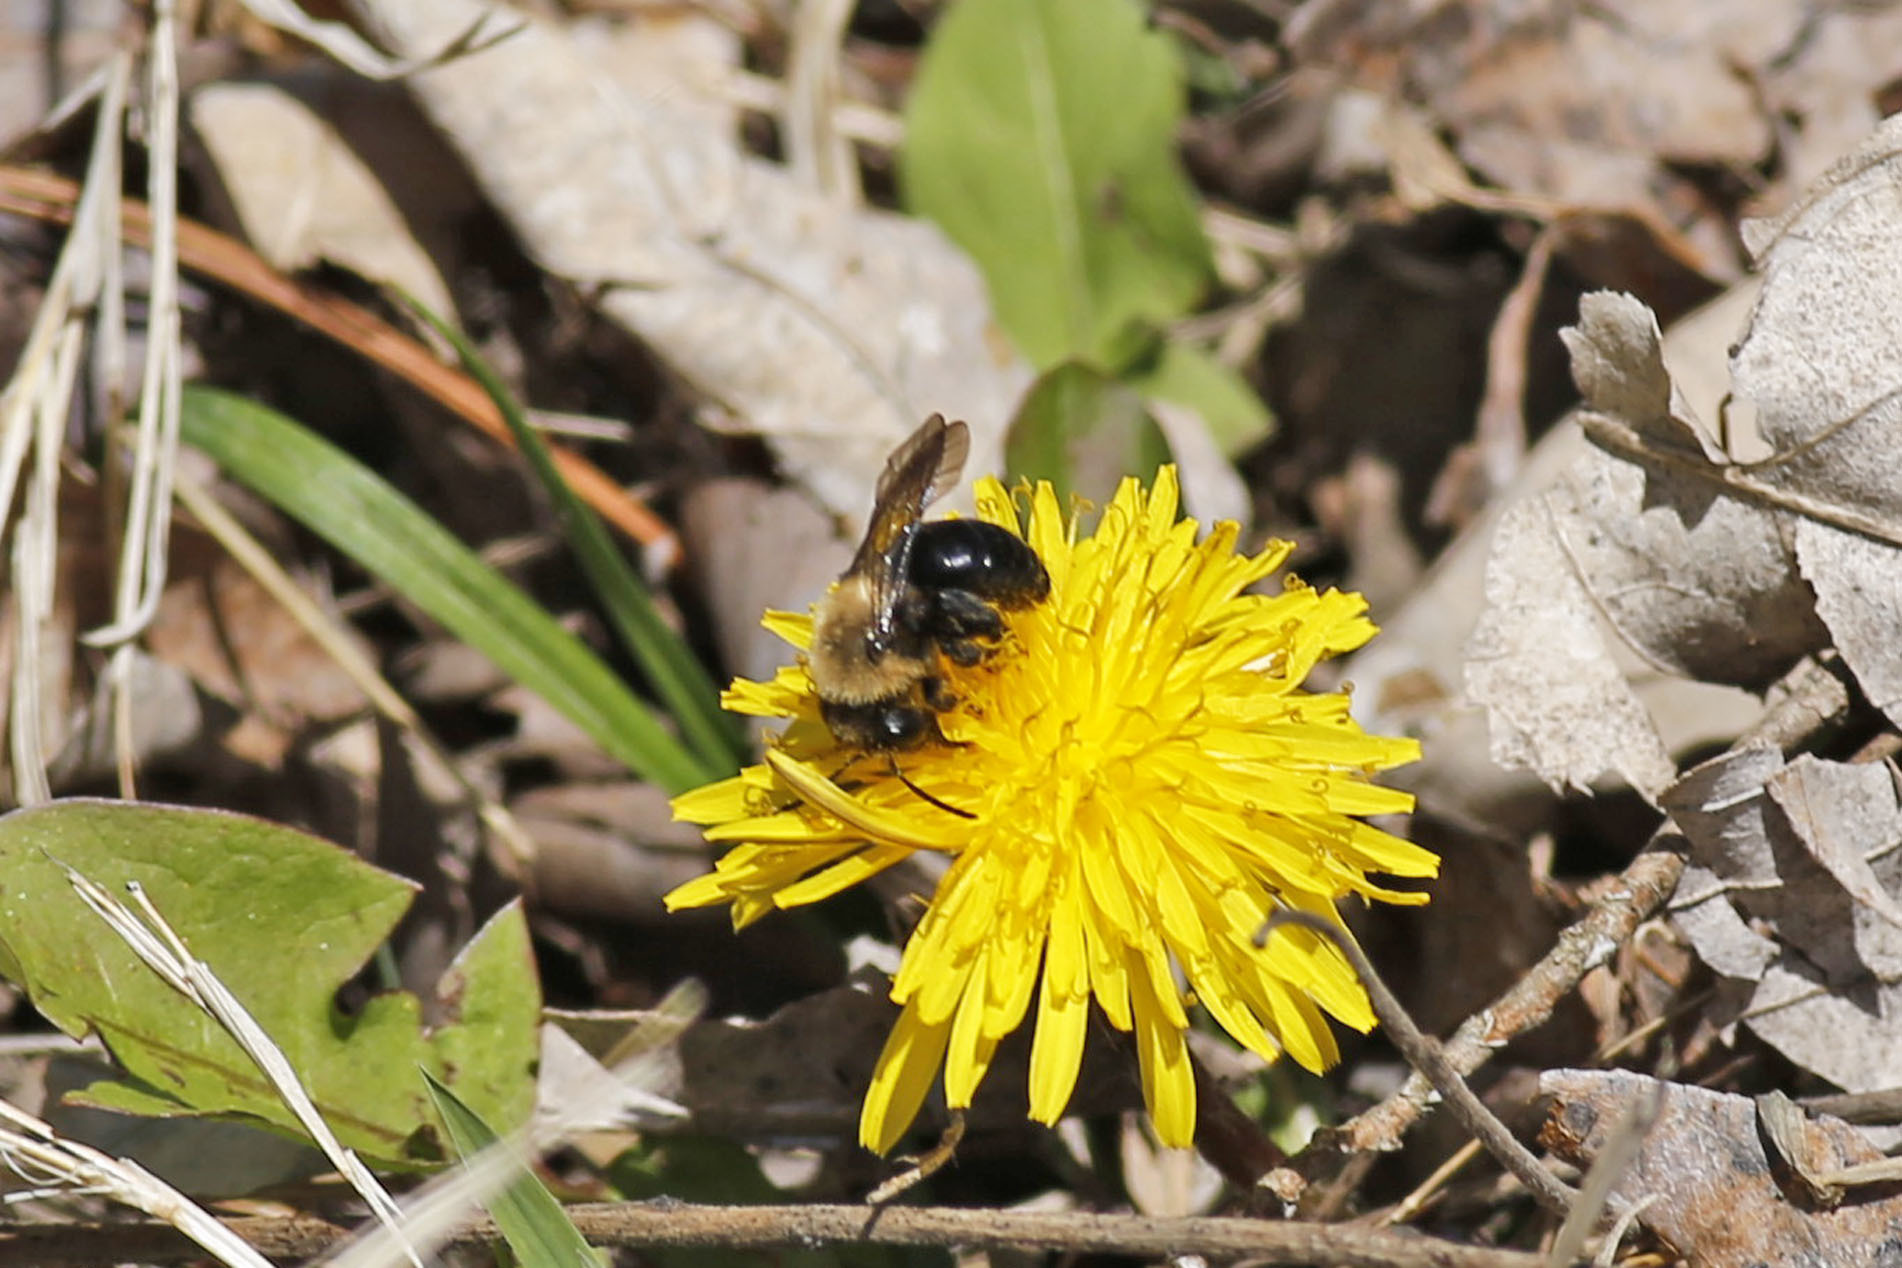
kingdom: Animalia
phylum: Arthropoda
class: Insecta
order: Hymenoptera
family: Apidae
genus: Xylocopa
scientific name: Xylocopa virginica
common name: Carpenter bee
